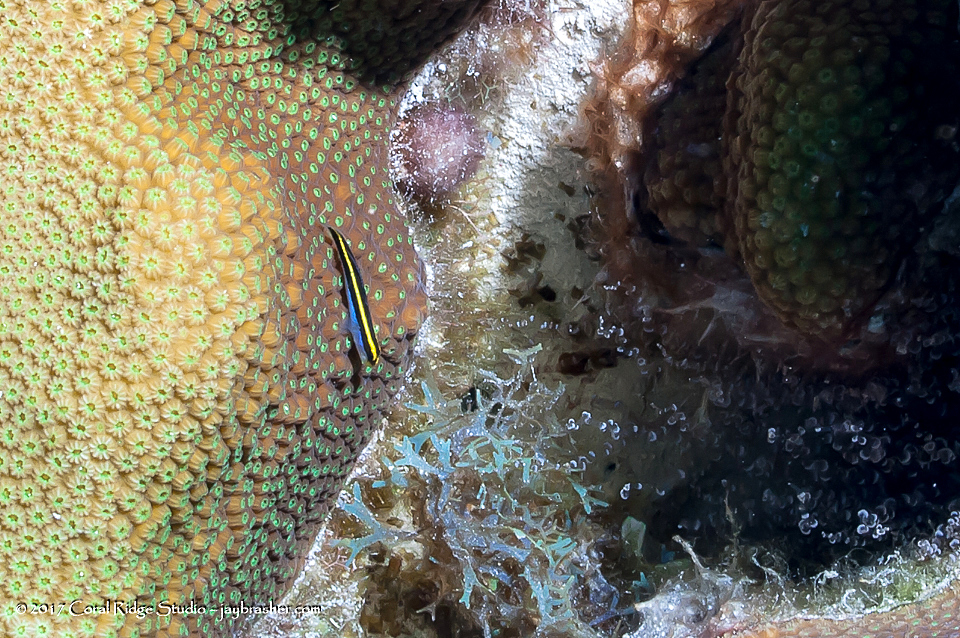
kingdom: Animalia
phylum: Chordata
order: Perciformes
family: Gobiidae
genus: Elacatinus
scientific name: Elacatinus randalli
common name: Yellownose goby
